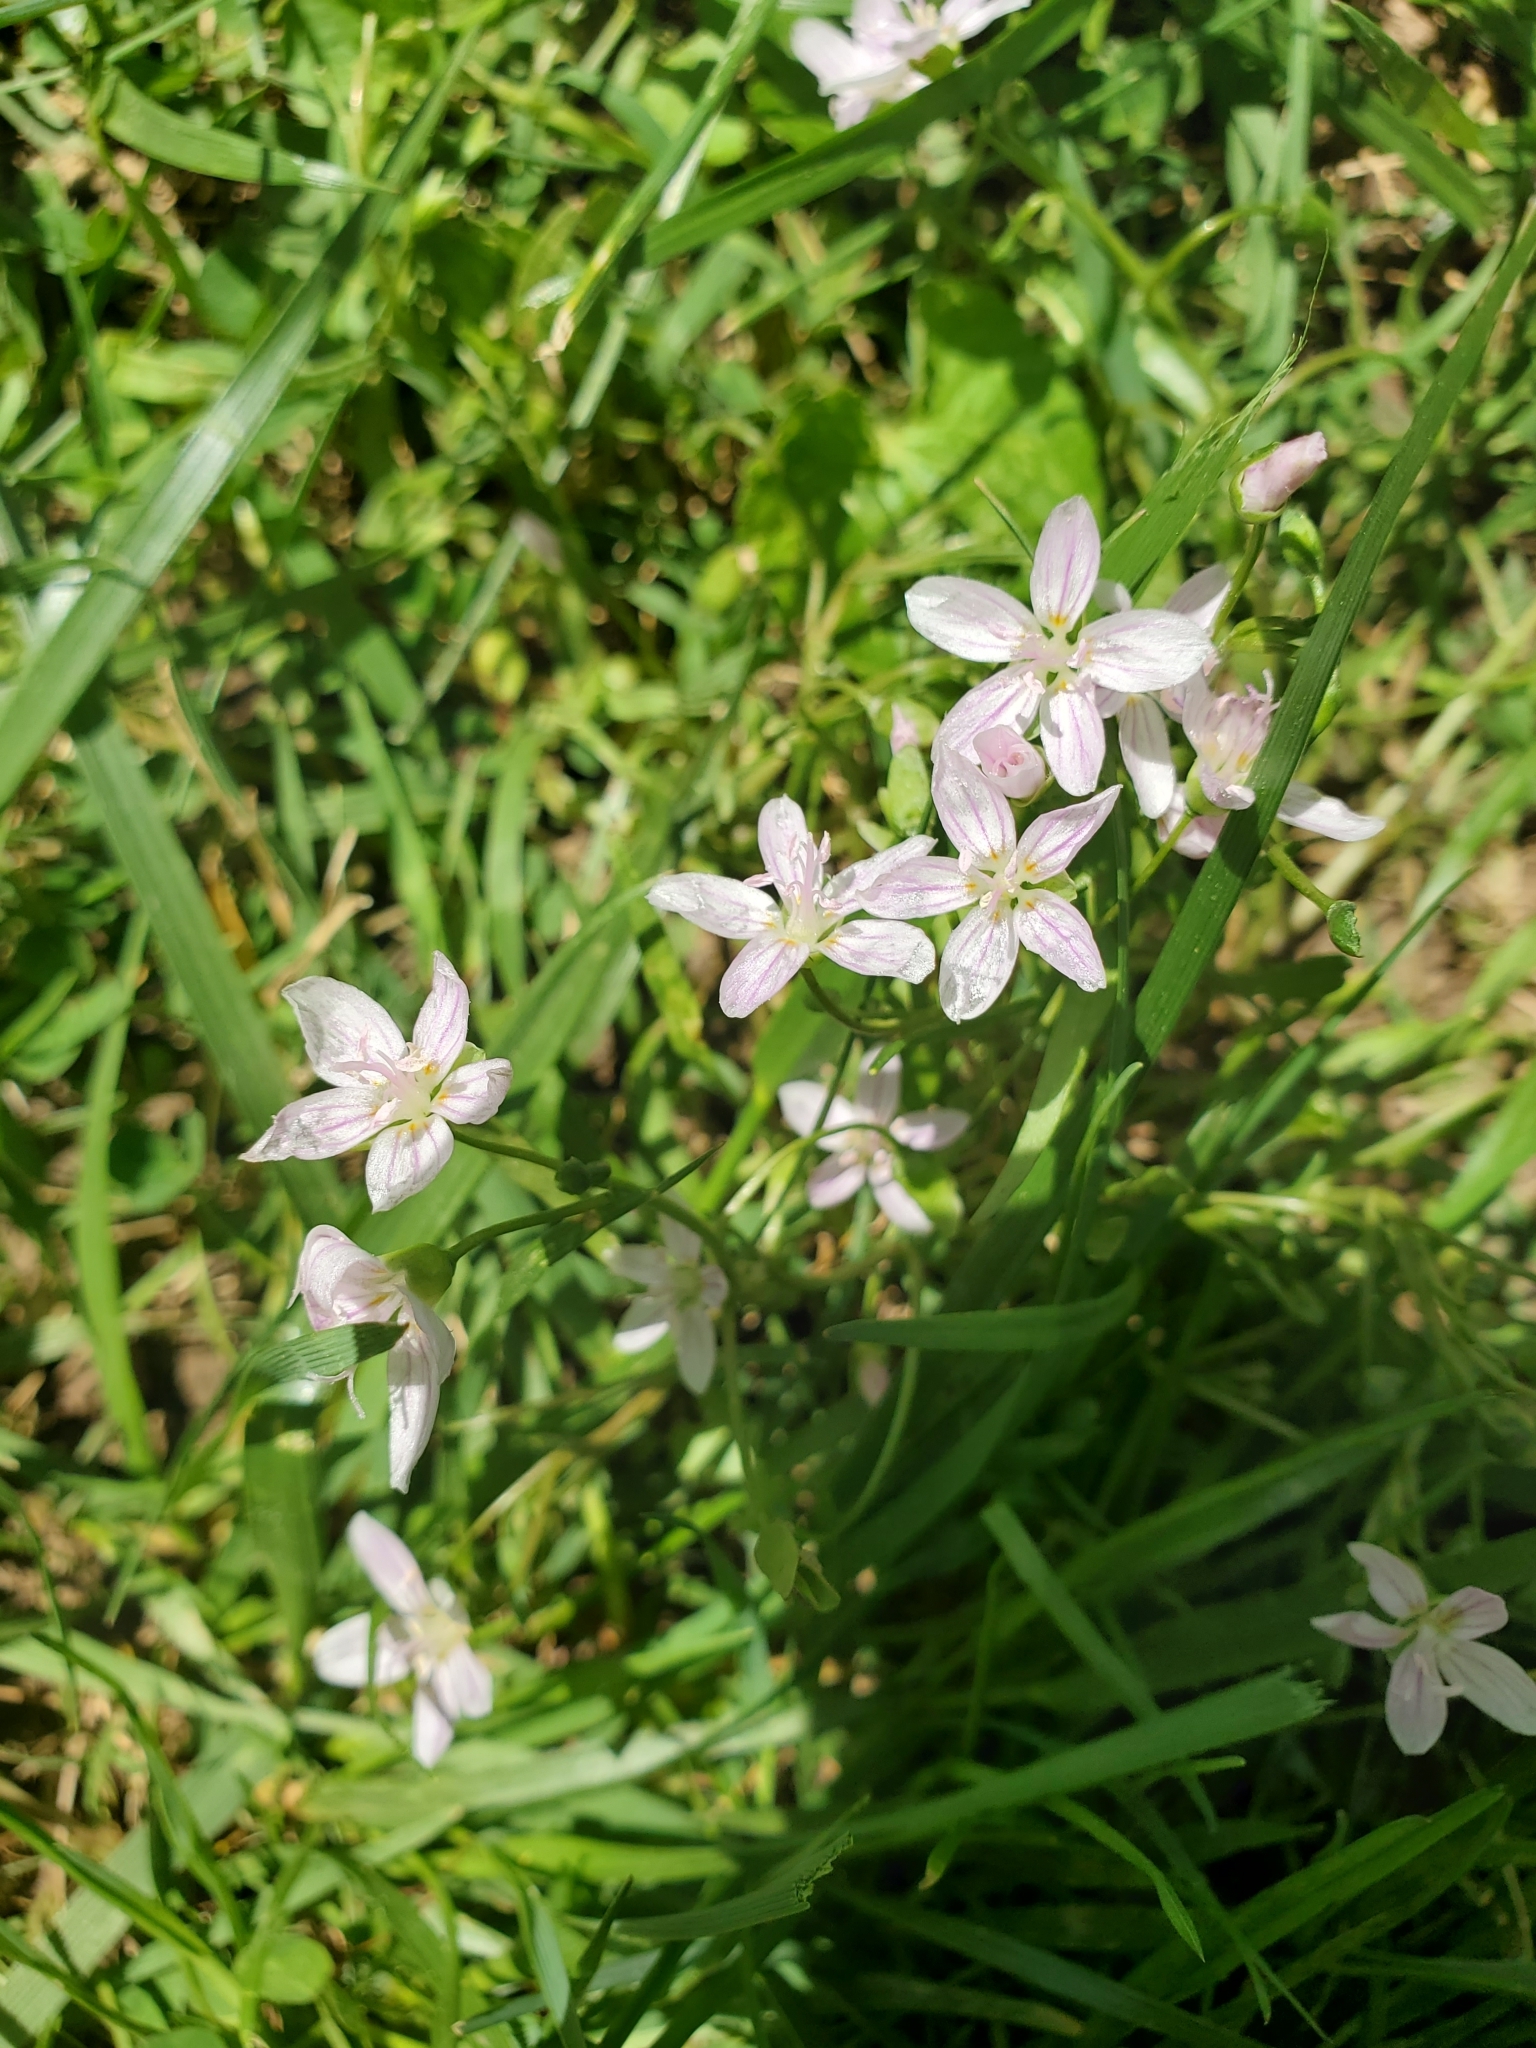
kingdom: Plantae
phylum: Tracheophyta
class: Magnoliopsida
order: Caryophyllales
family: Montiaceae
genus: Claytonia
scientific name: Claytonia virginica
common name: Virginia springbeauty
